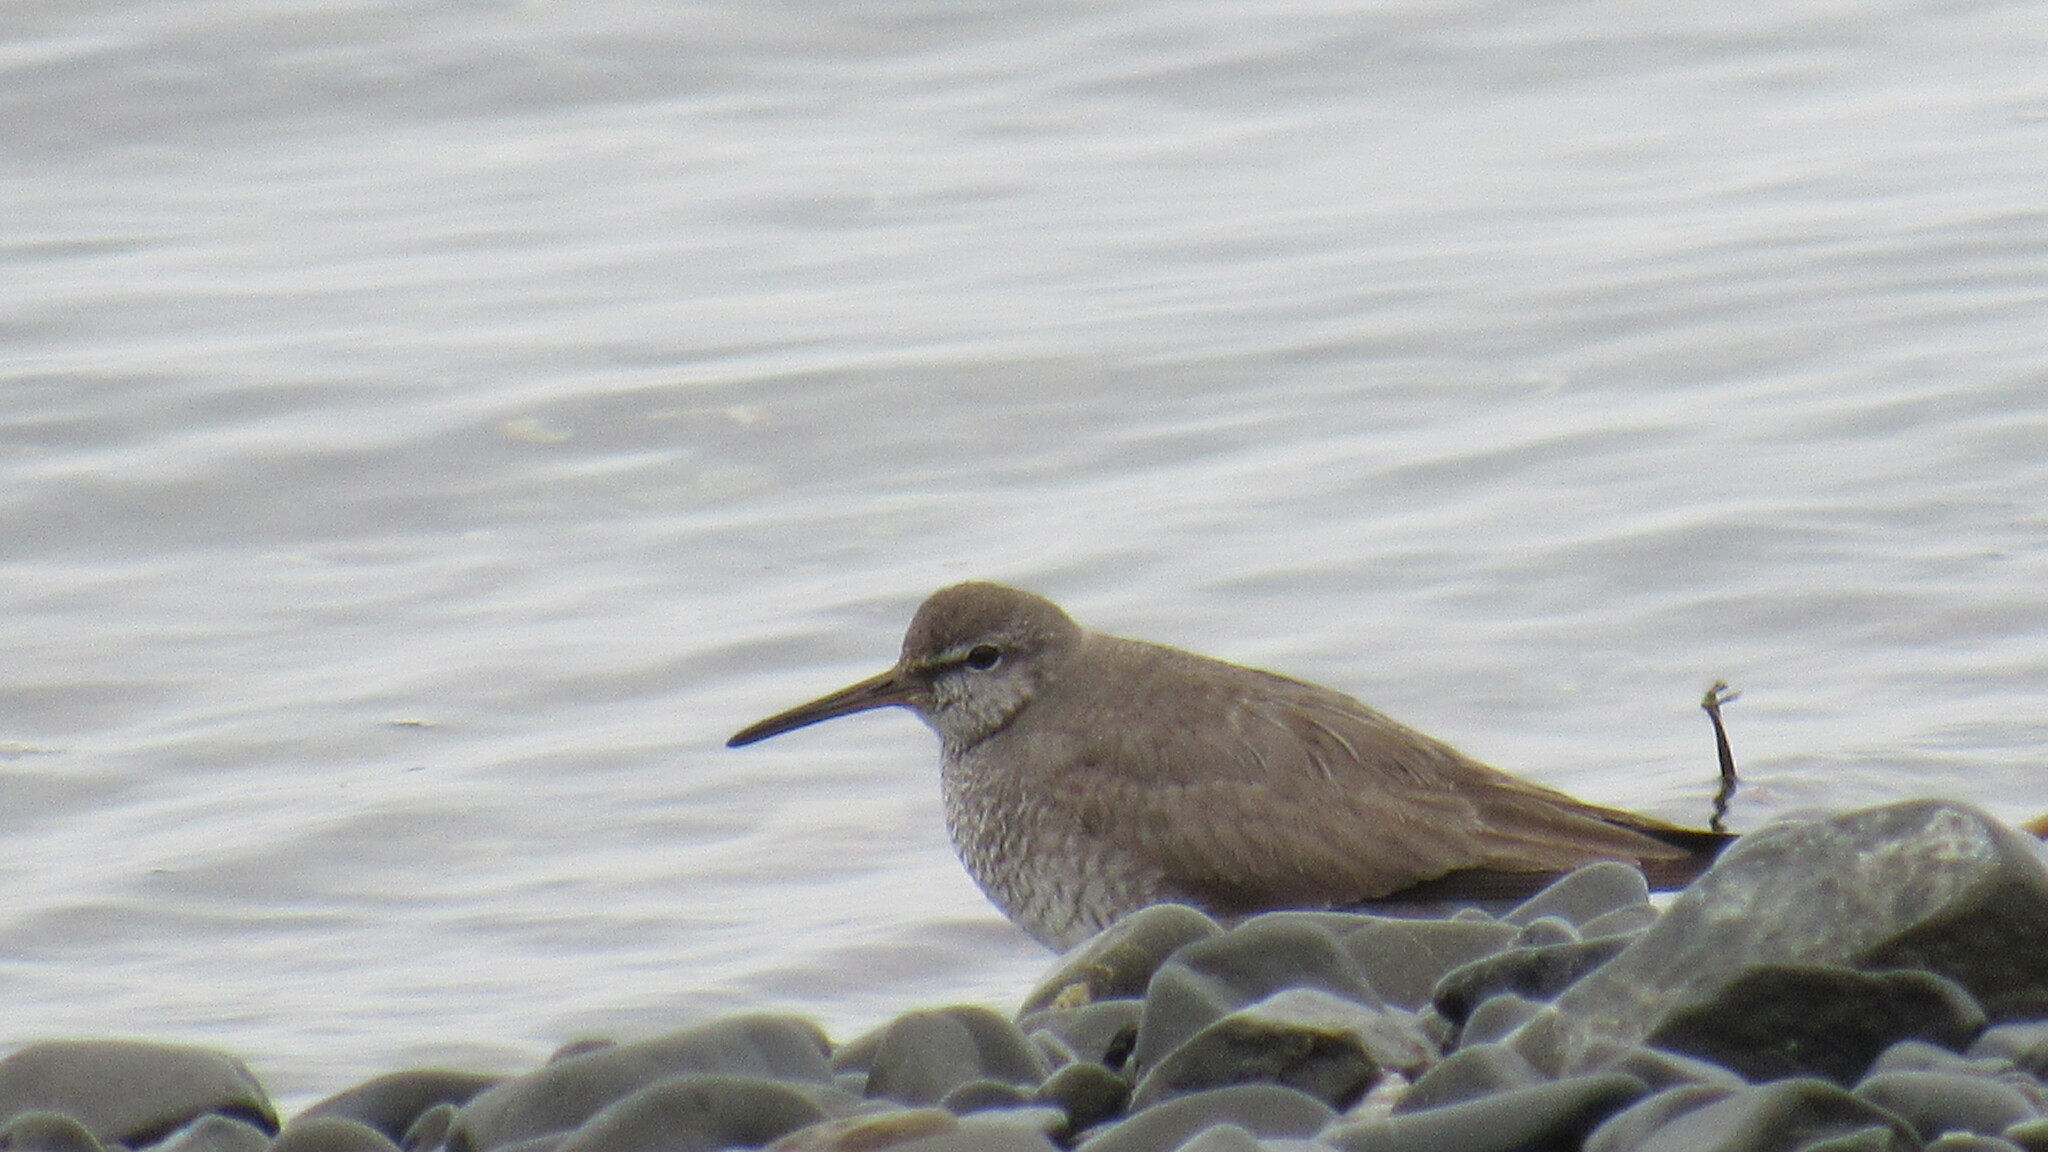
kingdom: Animalia
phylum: Chordata
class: Aves
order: Charadriiformes
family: Scolopacidae
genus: Tringa
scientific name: Tringa brevipes
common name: Grey-tailed tattler
